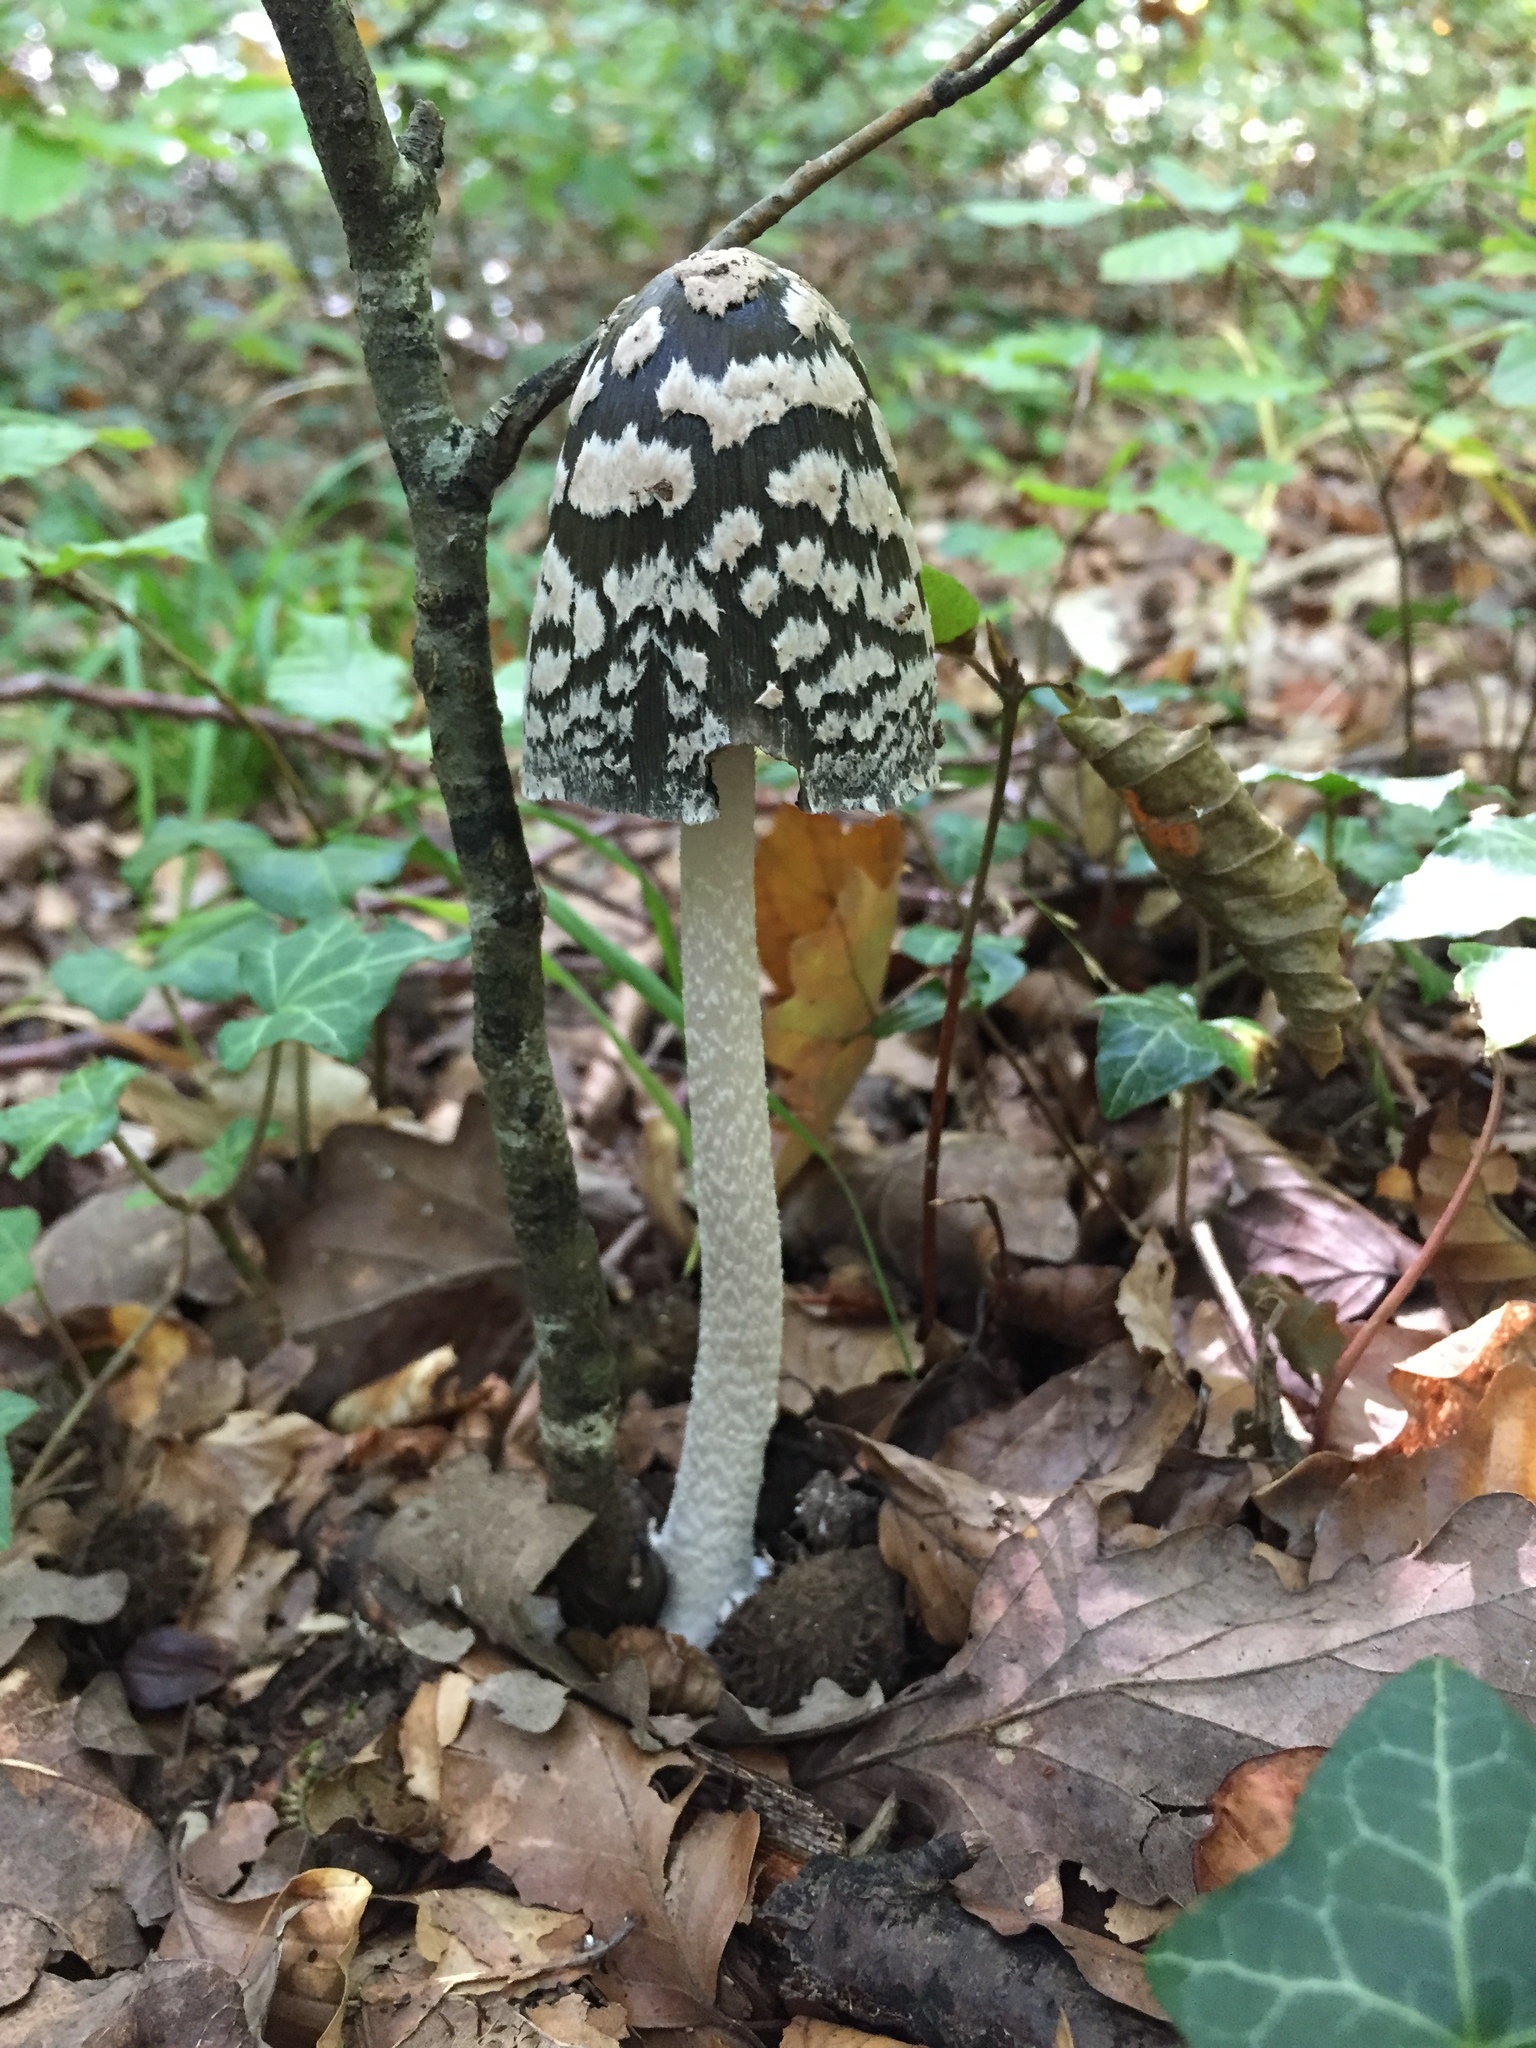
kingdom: Fungi
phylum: Basidiomycota
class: Agaricomycetes
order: Agaricales
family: Psathyrellaceae
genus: Coprinopsis
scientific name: Coprinopsis picacea
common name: Magpie inkcap
